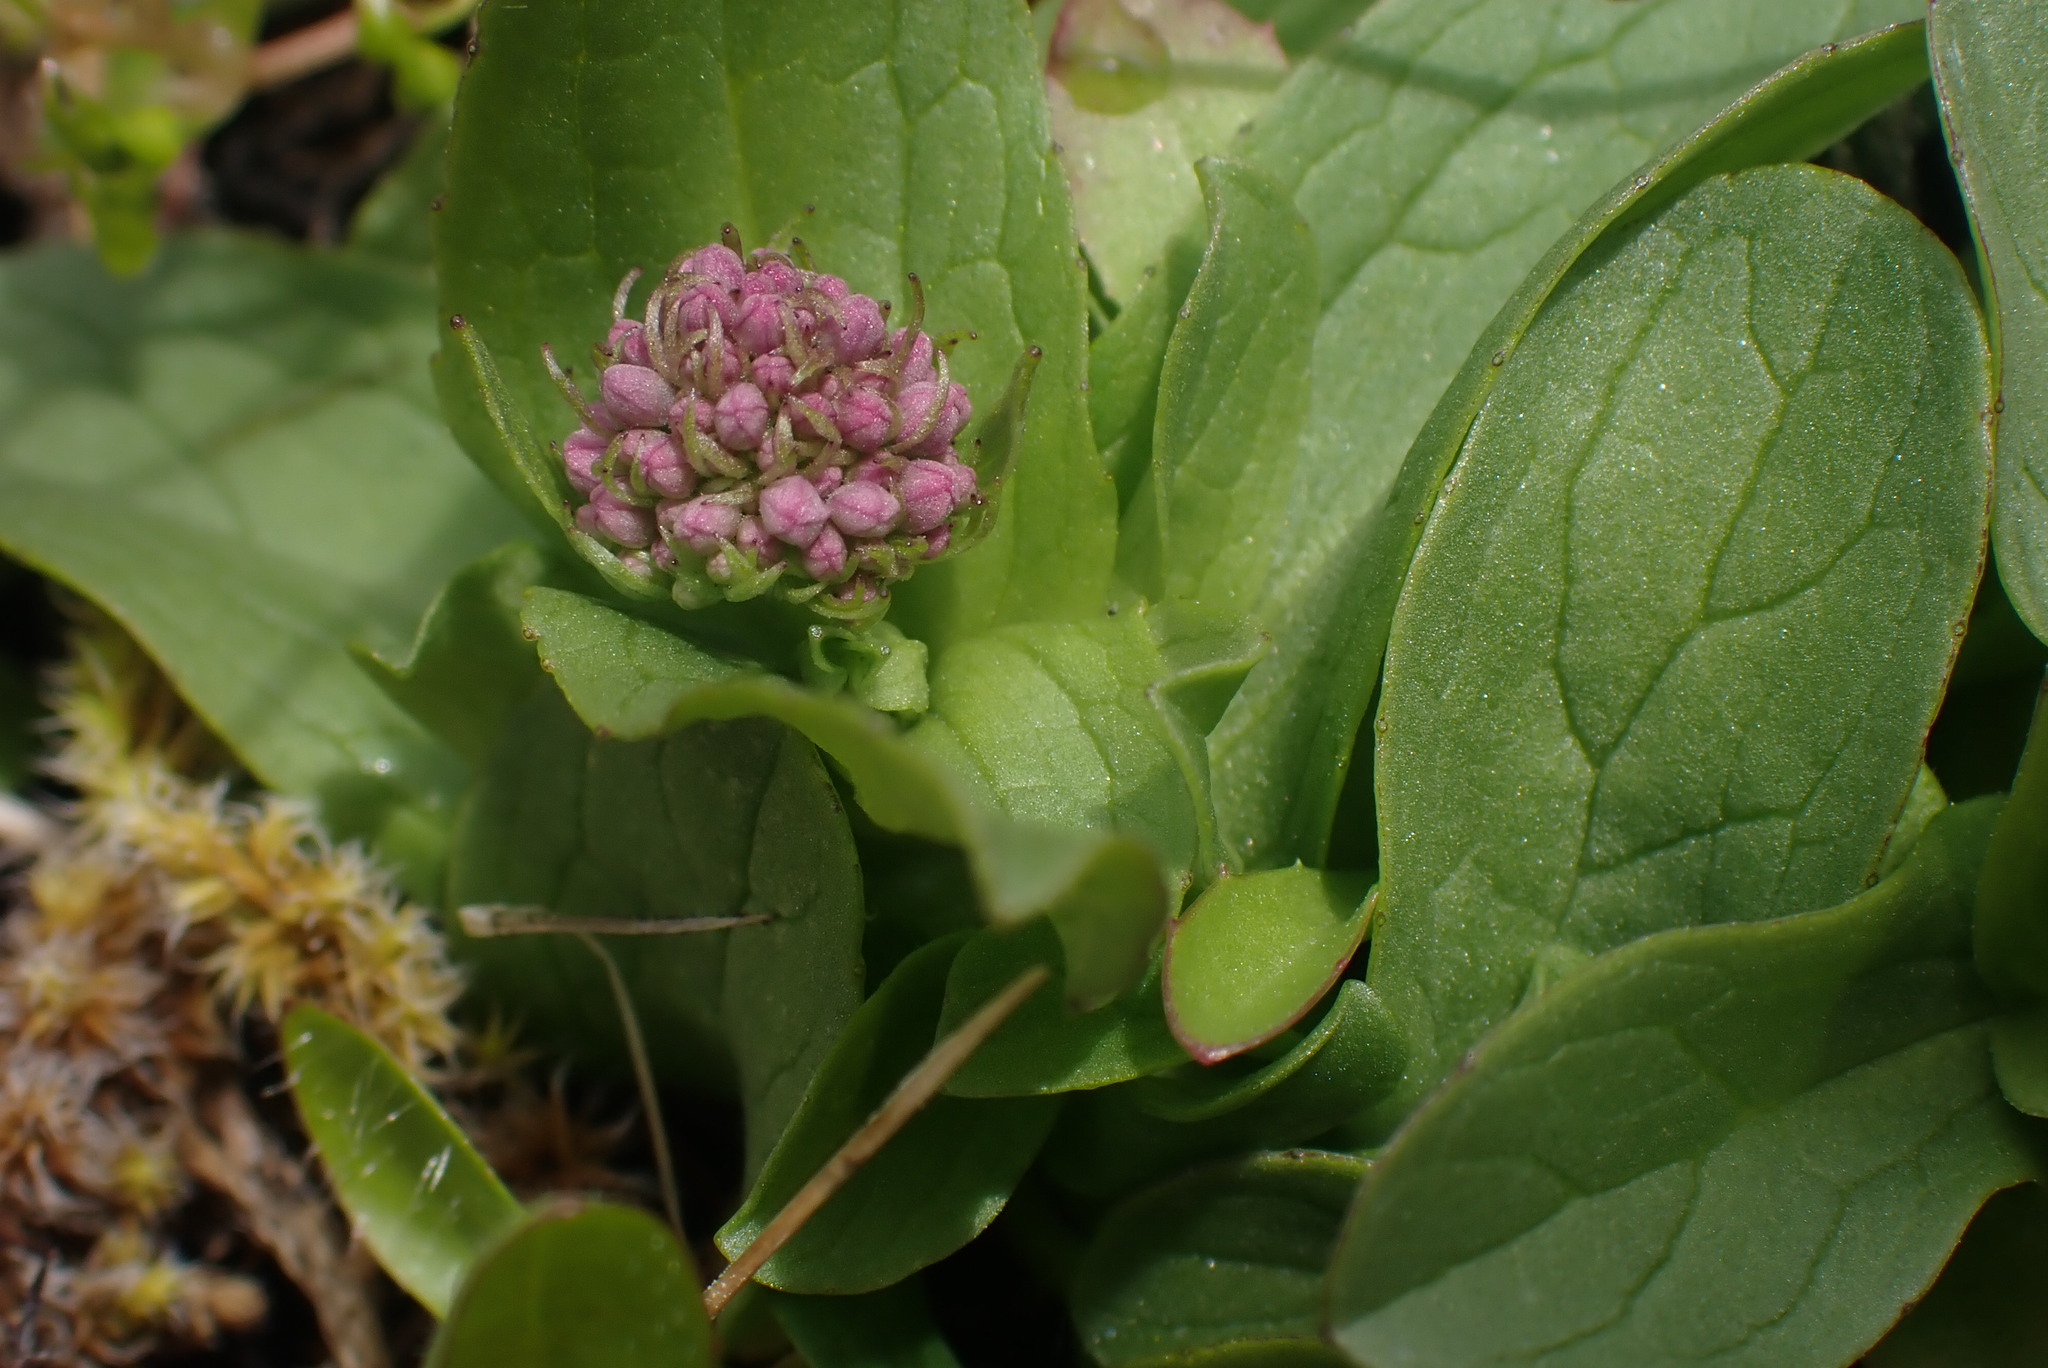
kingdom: Plantae
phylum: Tracheophyta
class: Magnoliopsida
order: Dipsacales
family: Caprifoliaceae
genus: Plectritis
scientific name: Plectritis congesta
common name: Pink plectritis
